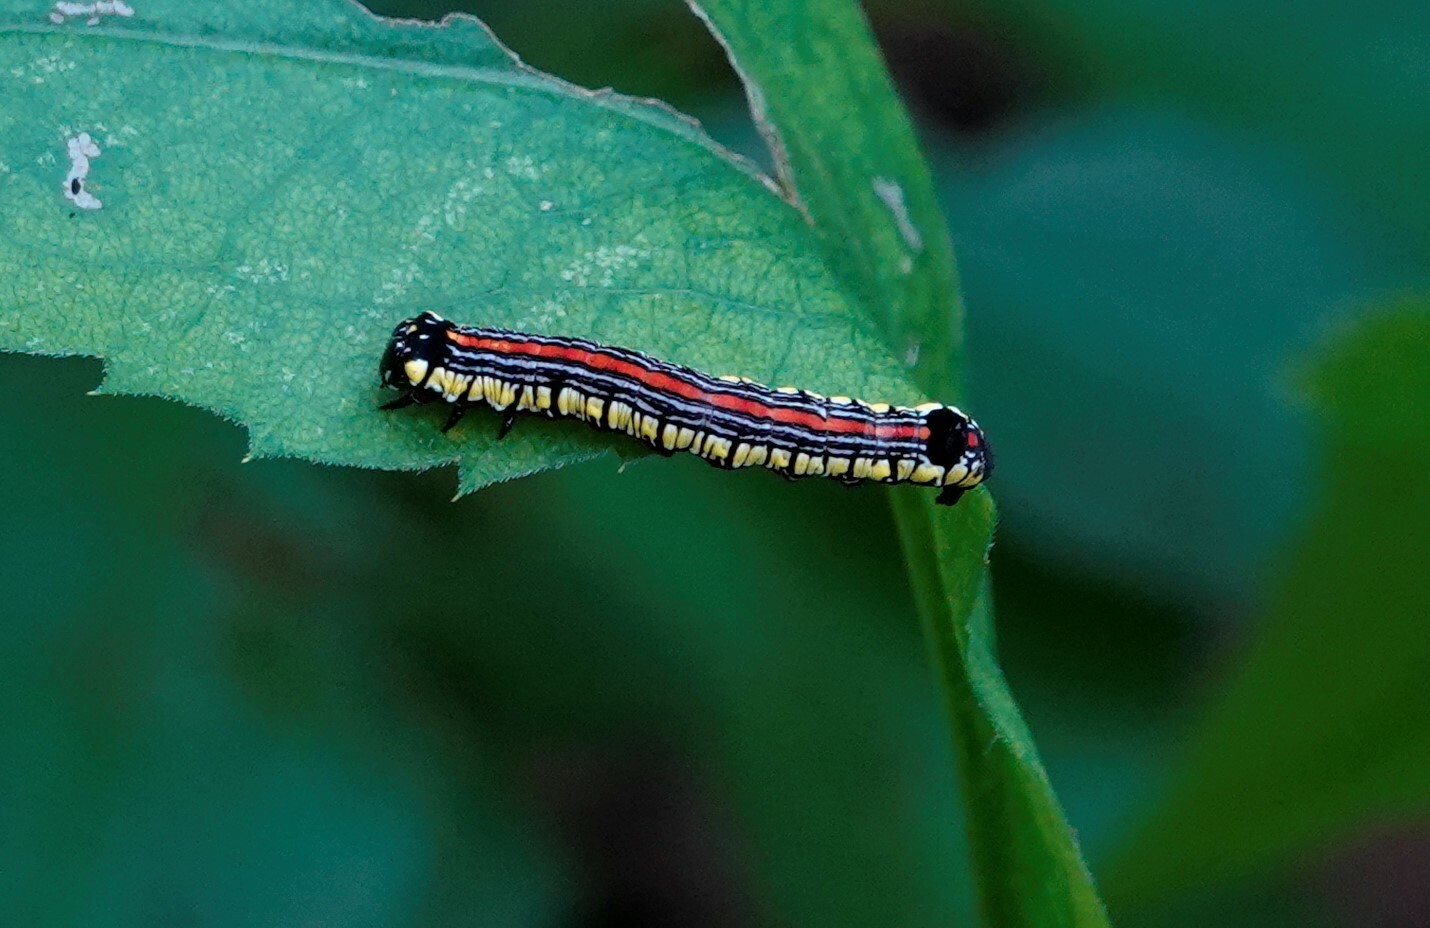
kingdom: Animalia
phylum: Arthropoda
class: Insecta
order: Lepidoptera
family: Noctuidae
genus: Cucullia
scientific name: Cucullia convexipennis
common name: Brown-hooded owlet
